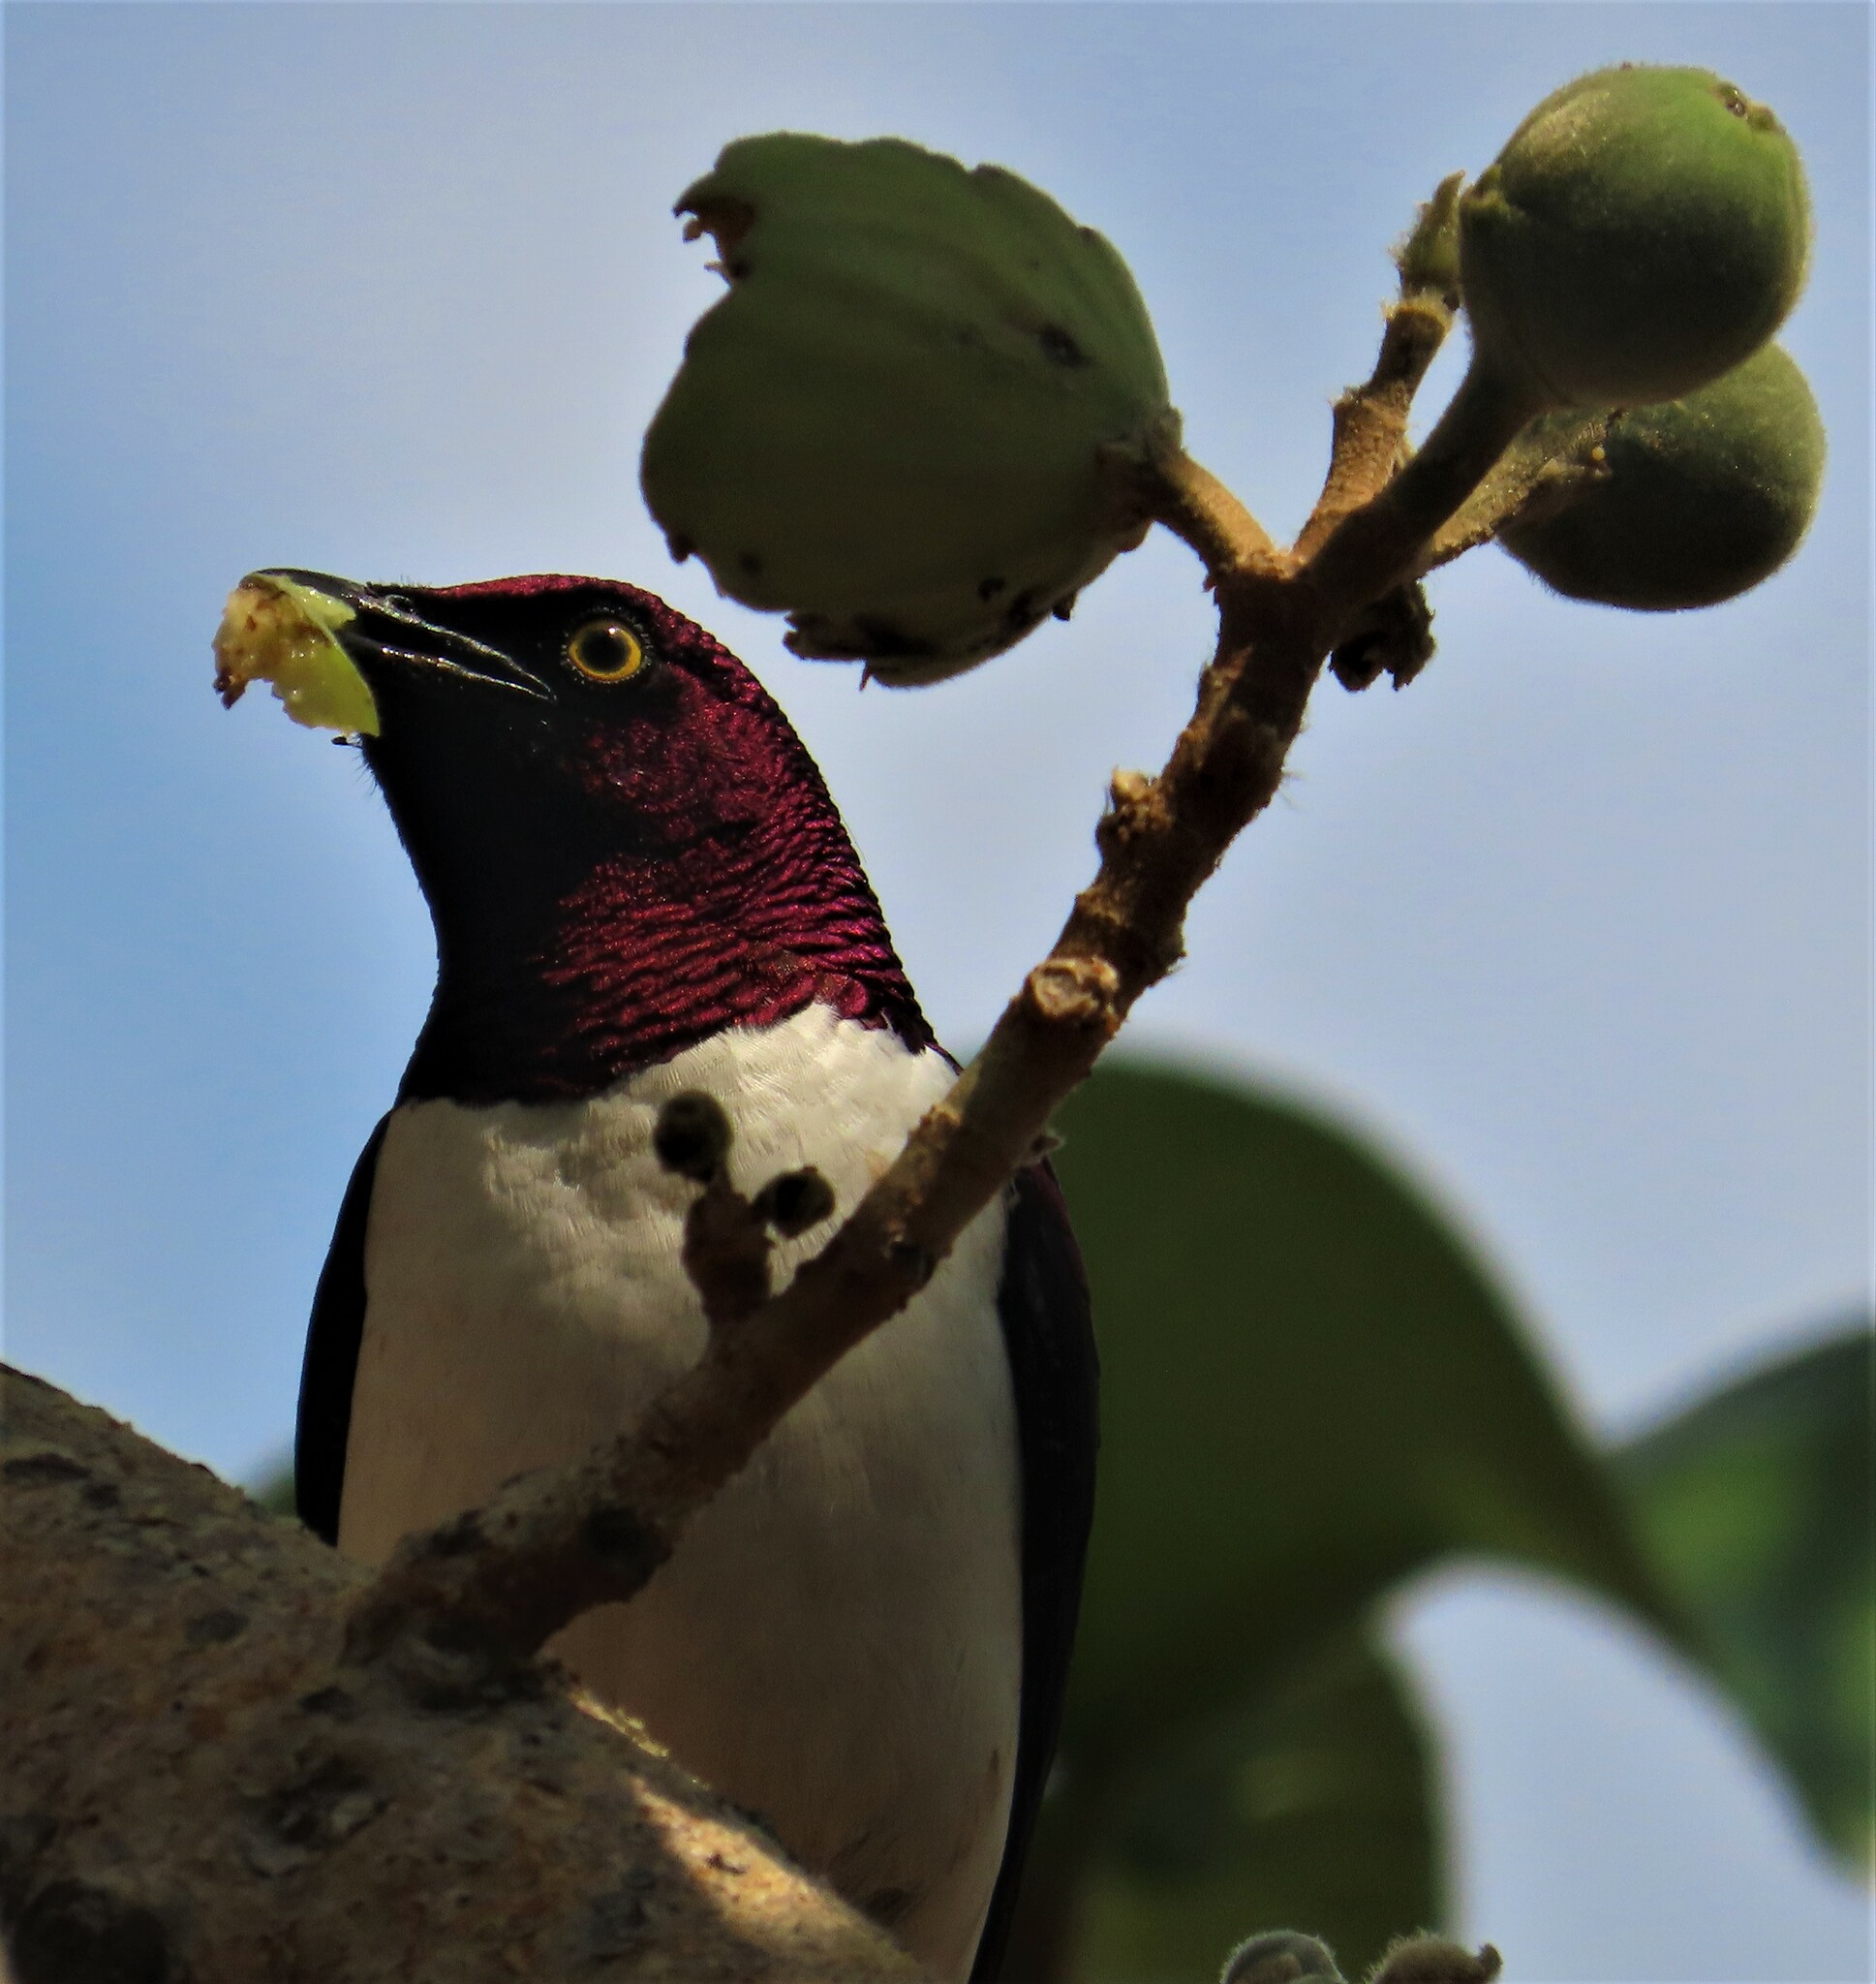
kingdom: Animalia
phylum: Chordata
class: Aves
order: Passeriformes
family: Sturnidae
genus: Cinnyricinclus
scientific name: Cinnyricinclus leucogaster
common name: Violet-backed starling
